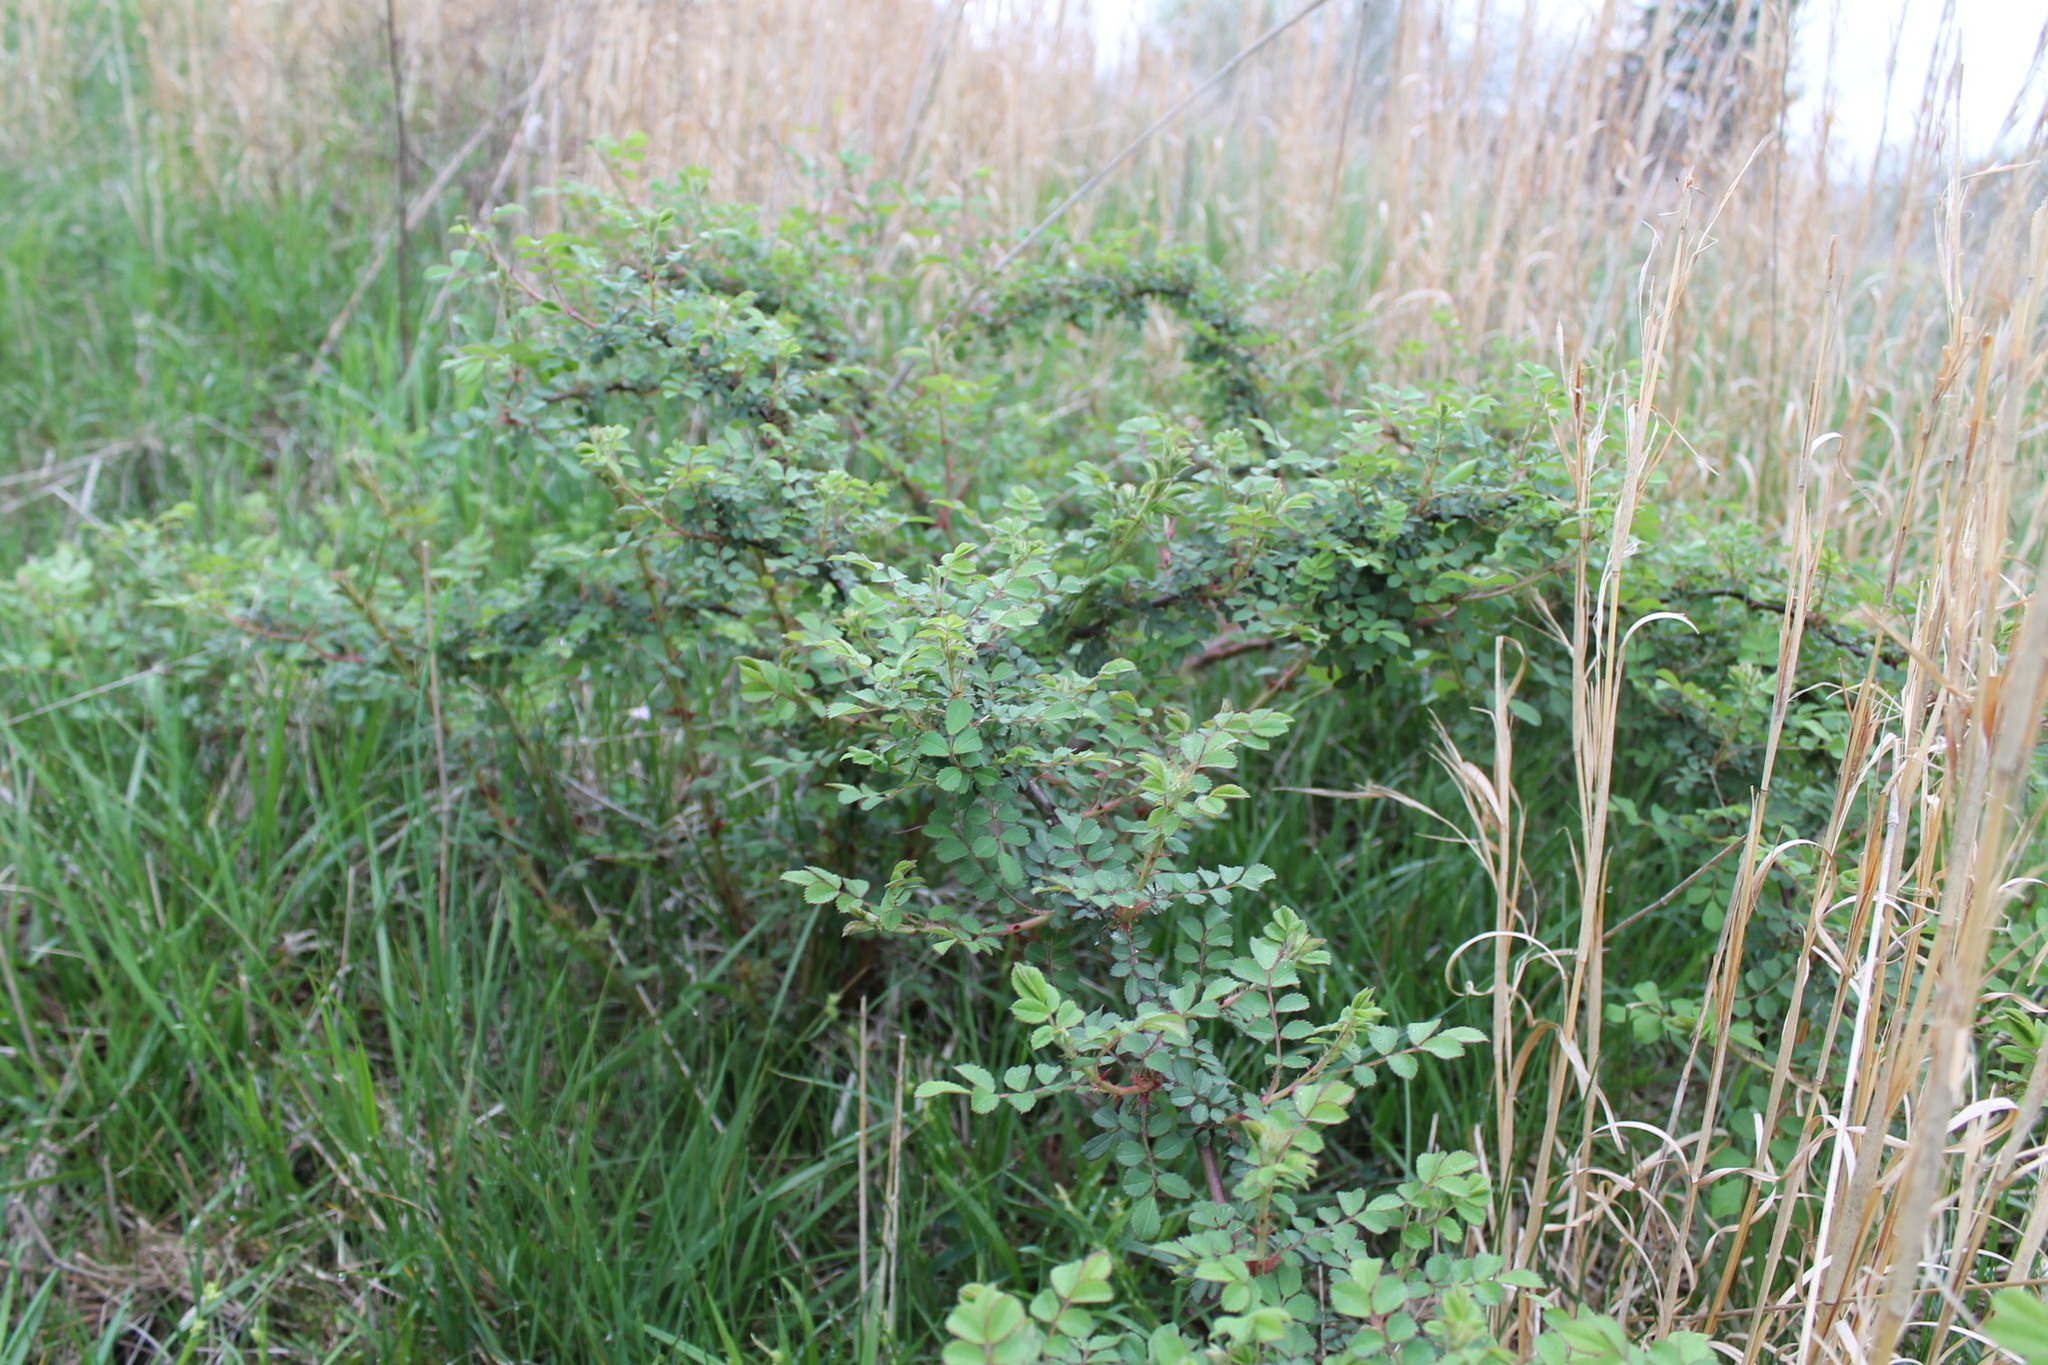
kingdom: Plantae
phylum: Tracheophyta
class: Magnoliopsida
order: Rosales
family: Rosaceae
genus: Rosa
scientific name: Rosa multiflora
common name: Multiflora rose
